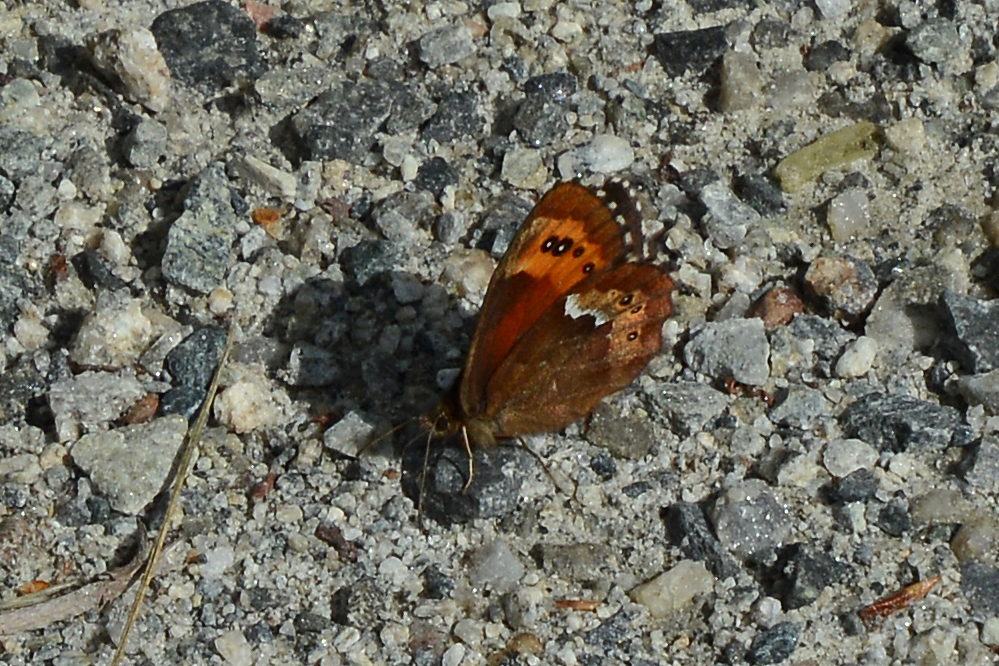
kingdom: Animalia
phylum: Arthropoda
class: Insecta
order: Lepidoptera
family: Nymphalidae
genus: Erebia
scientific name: Erebia ligea
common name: Arran brown
